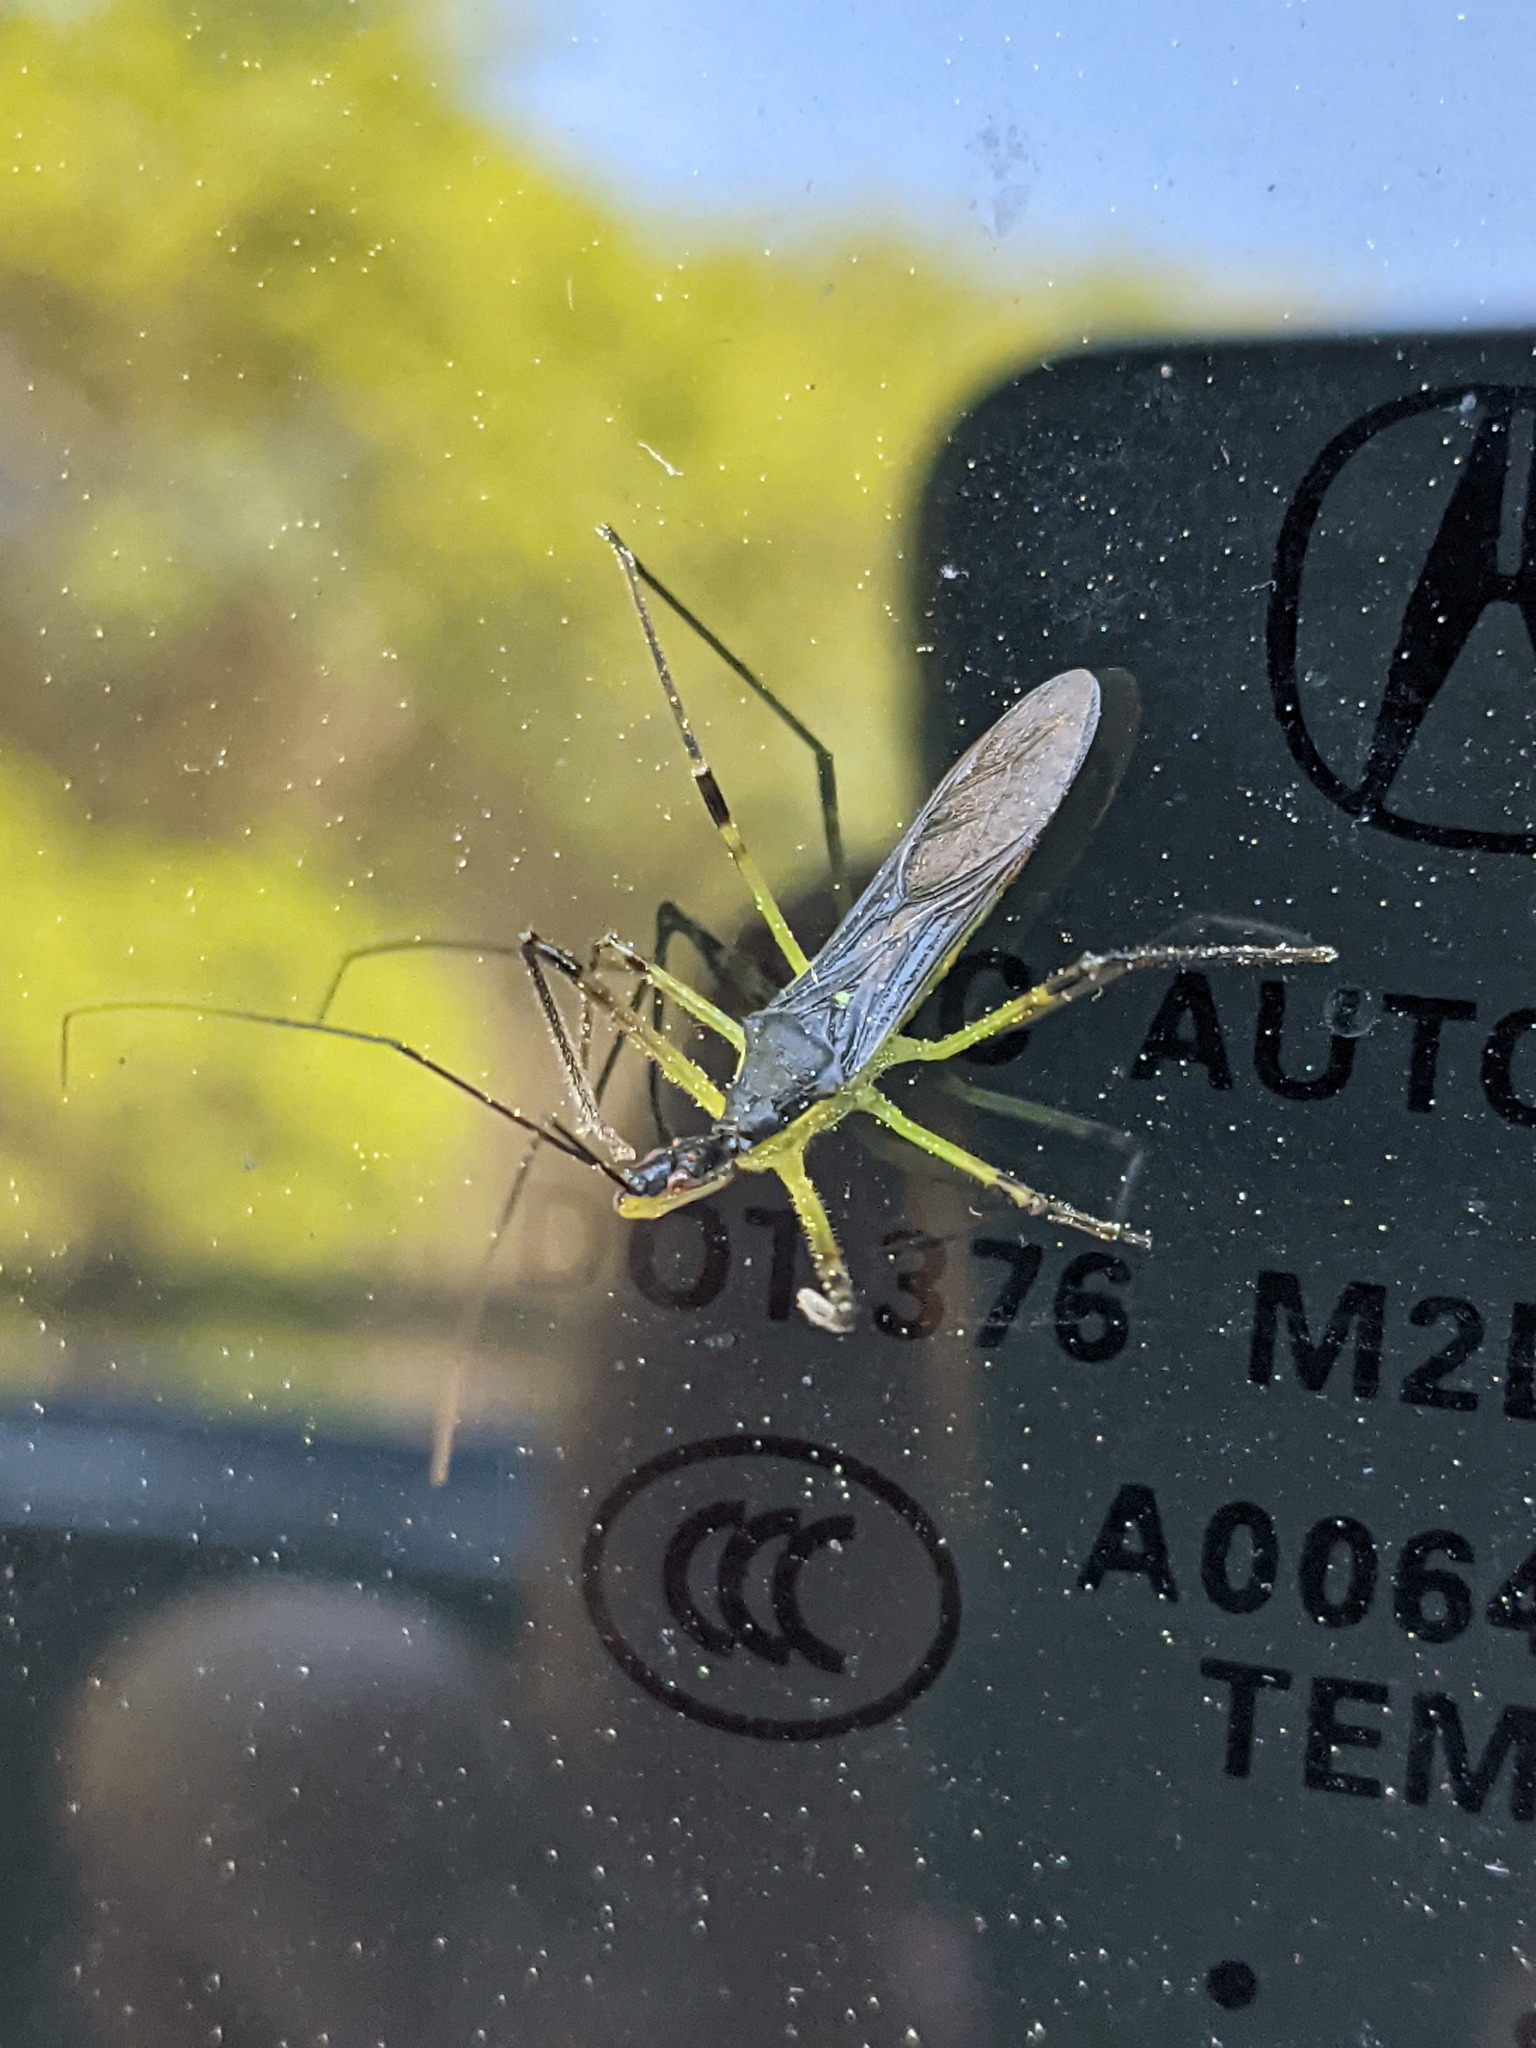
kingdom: Animalia
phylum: Arthropoda
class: Insecta
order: Hemiptera
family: Reduviidae
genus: Zelus
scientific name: Zelus luridus
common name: Pale green assassin bug
